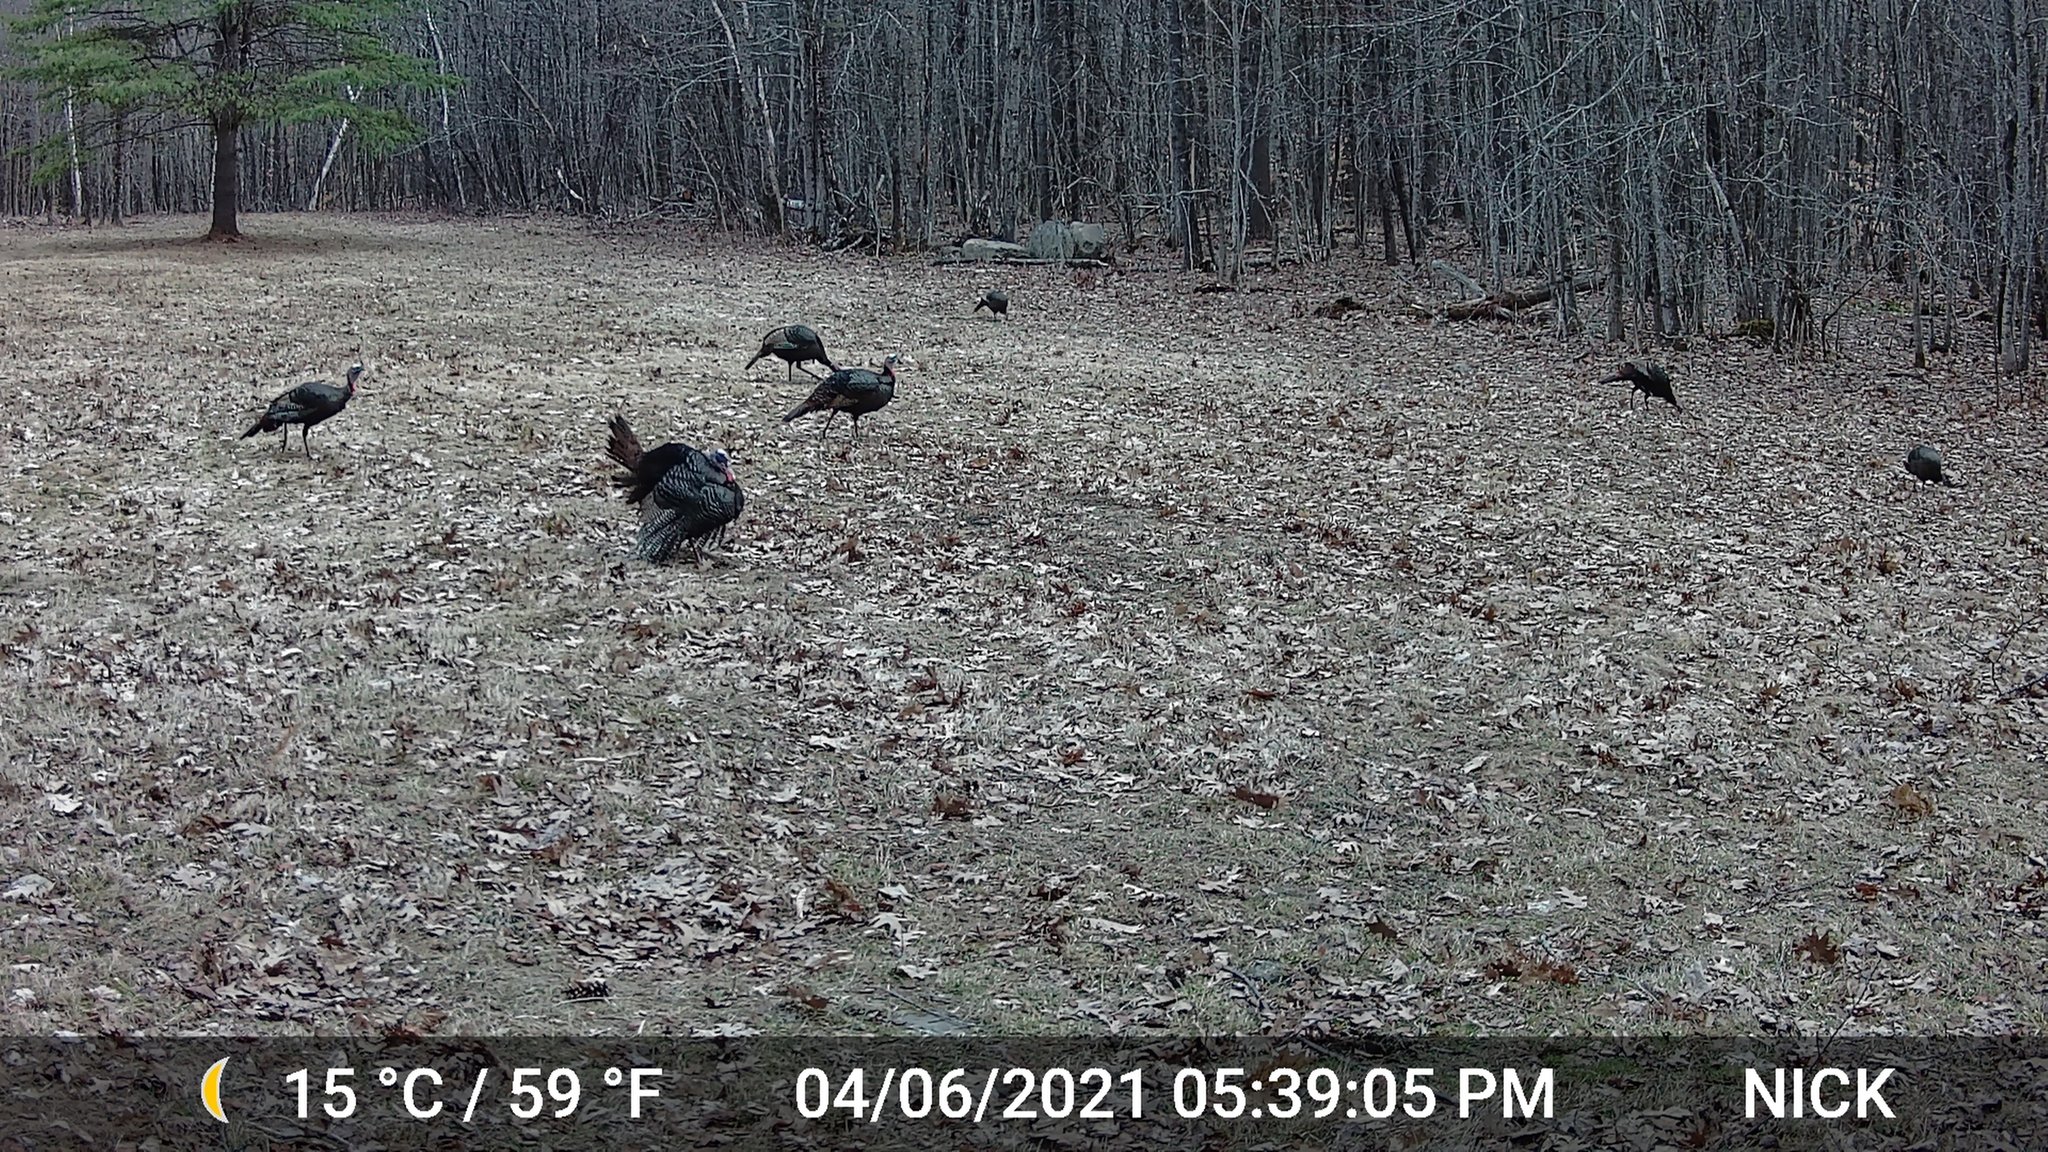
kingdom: Animalia
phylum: Chordata
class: Aves
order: Galliformes
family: Phasianidae
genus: Meleagris
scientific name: Meleagris gallopavo
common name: Wild turkey
